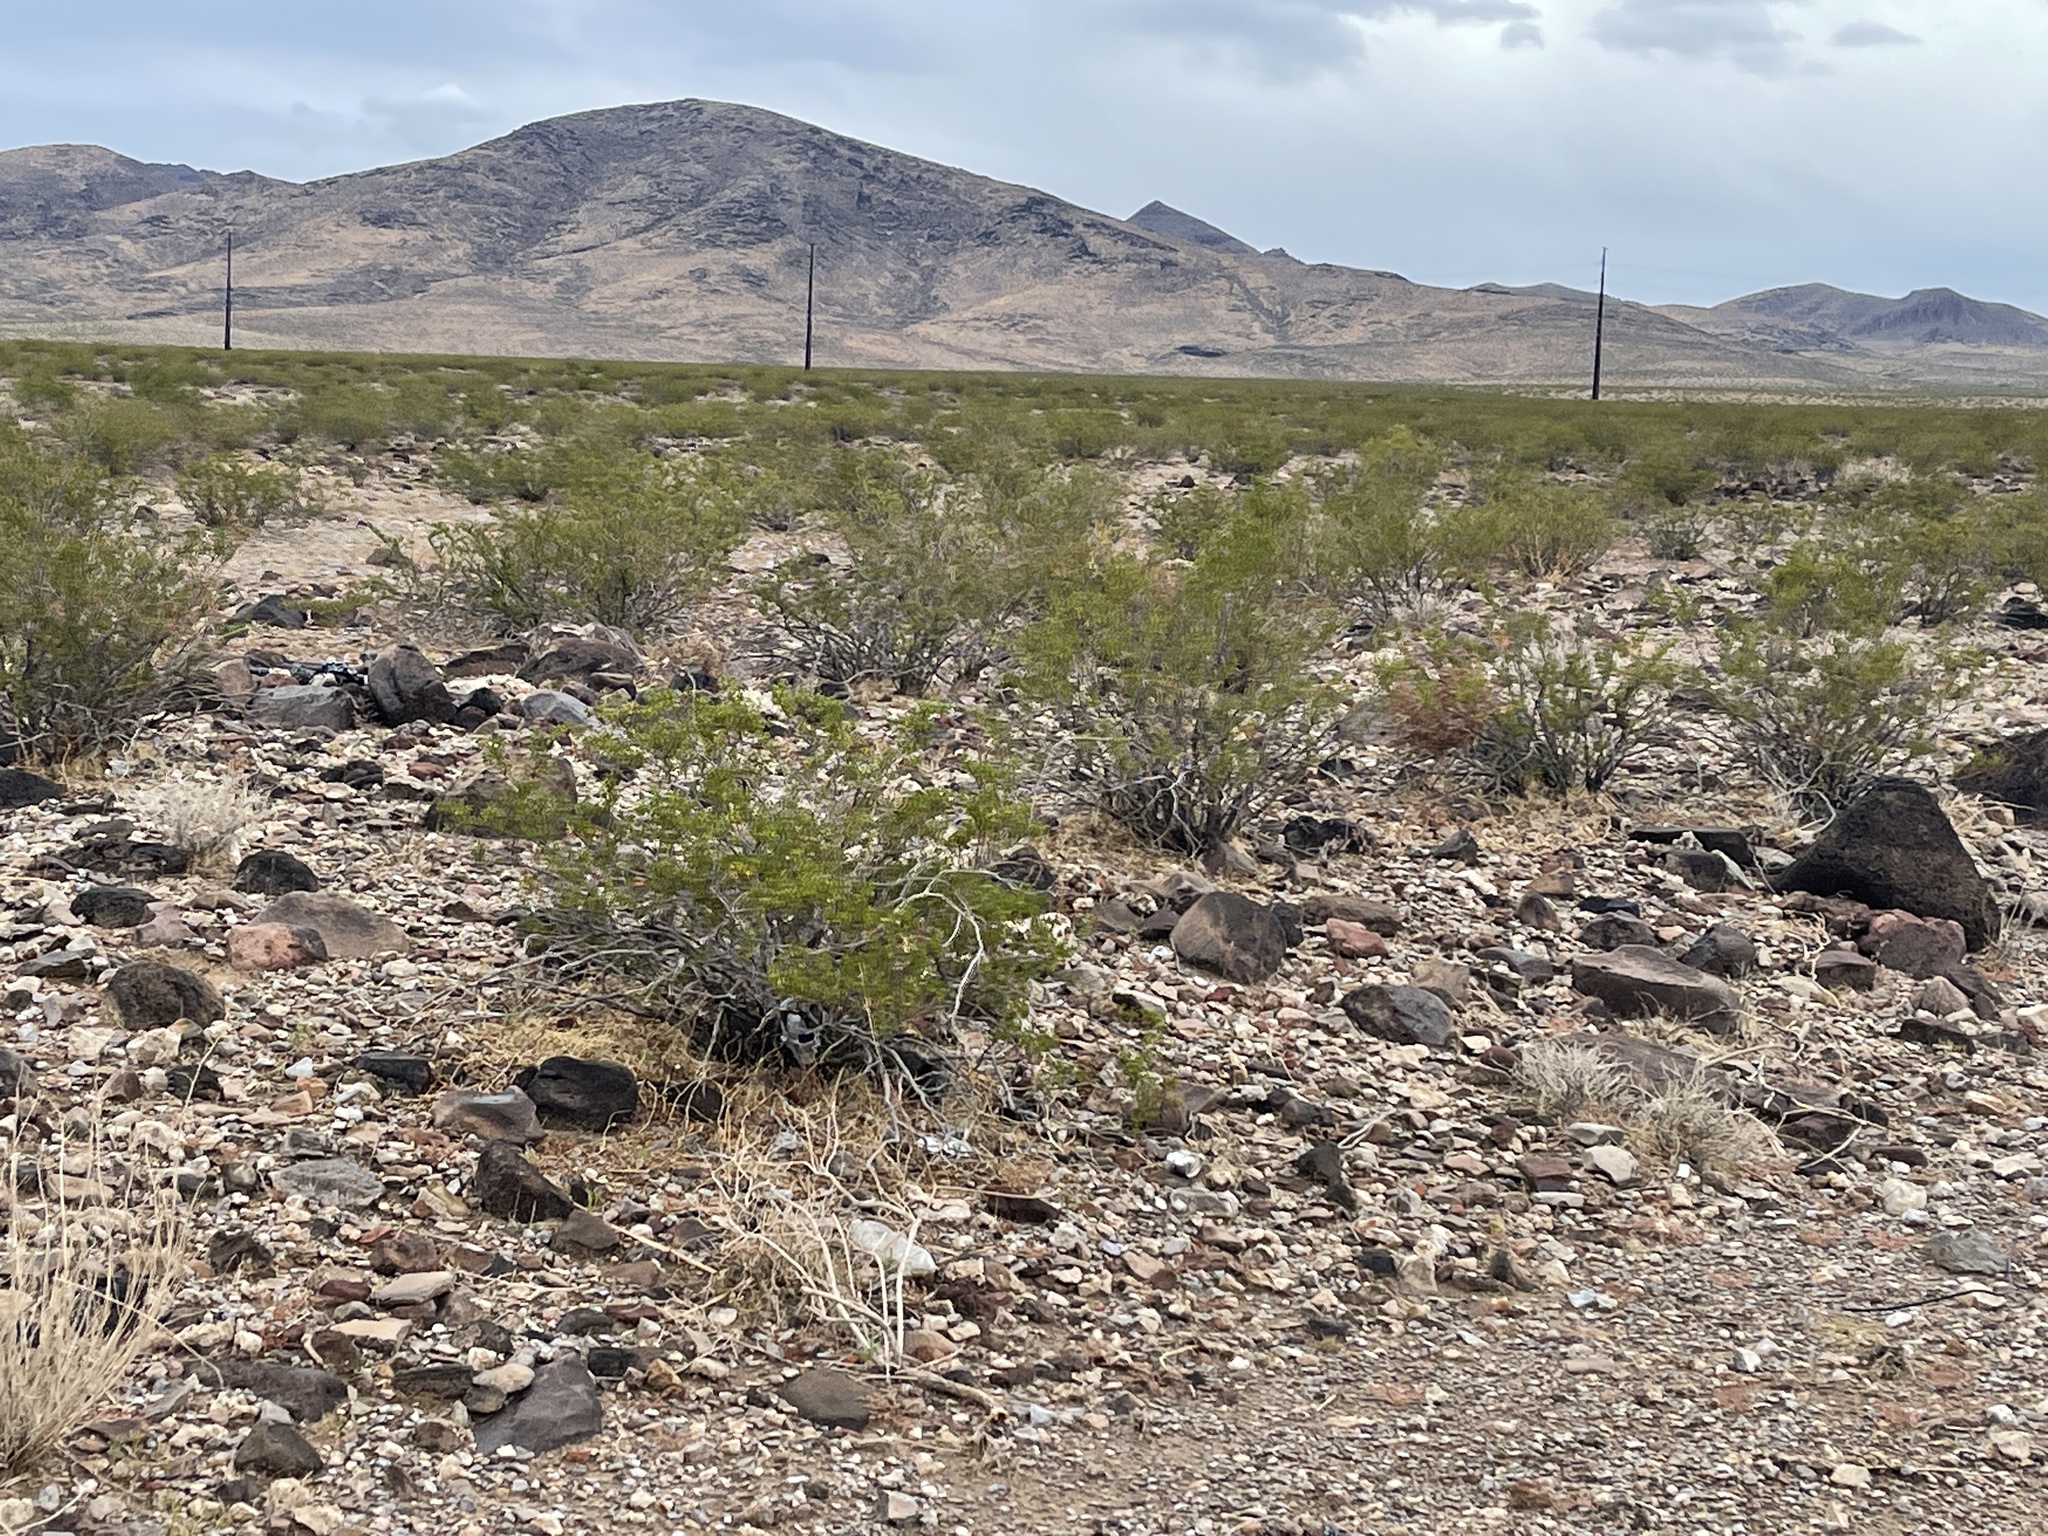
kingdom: Plantae
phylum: Tracheophyta
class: Magnoliopsida
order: Zygophyllales
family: Zygophyllaceae
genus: Larrea
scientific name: Larrea tridentata
